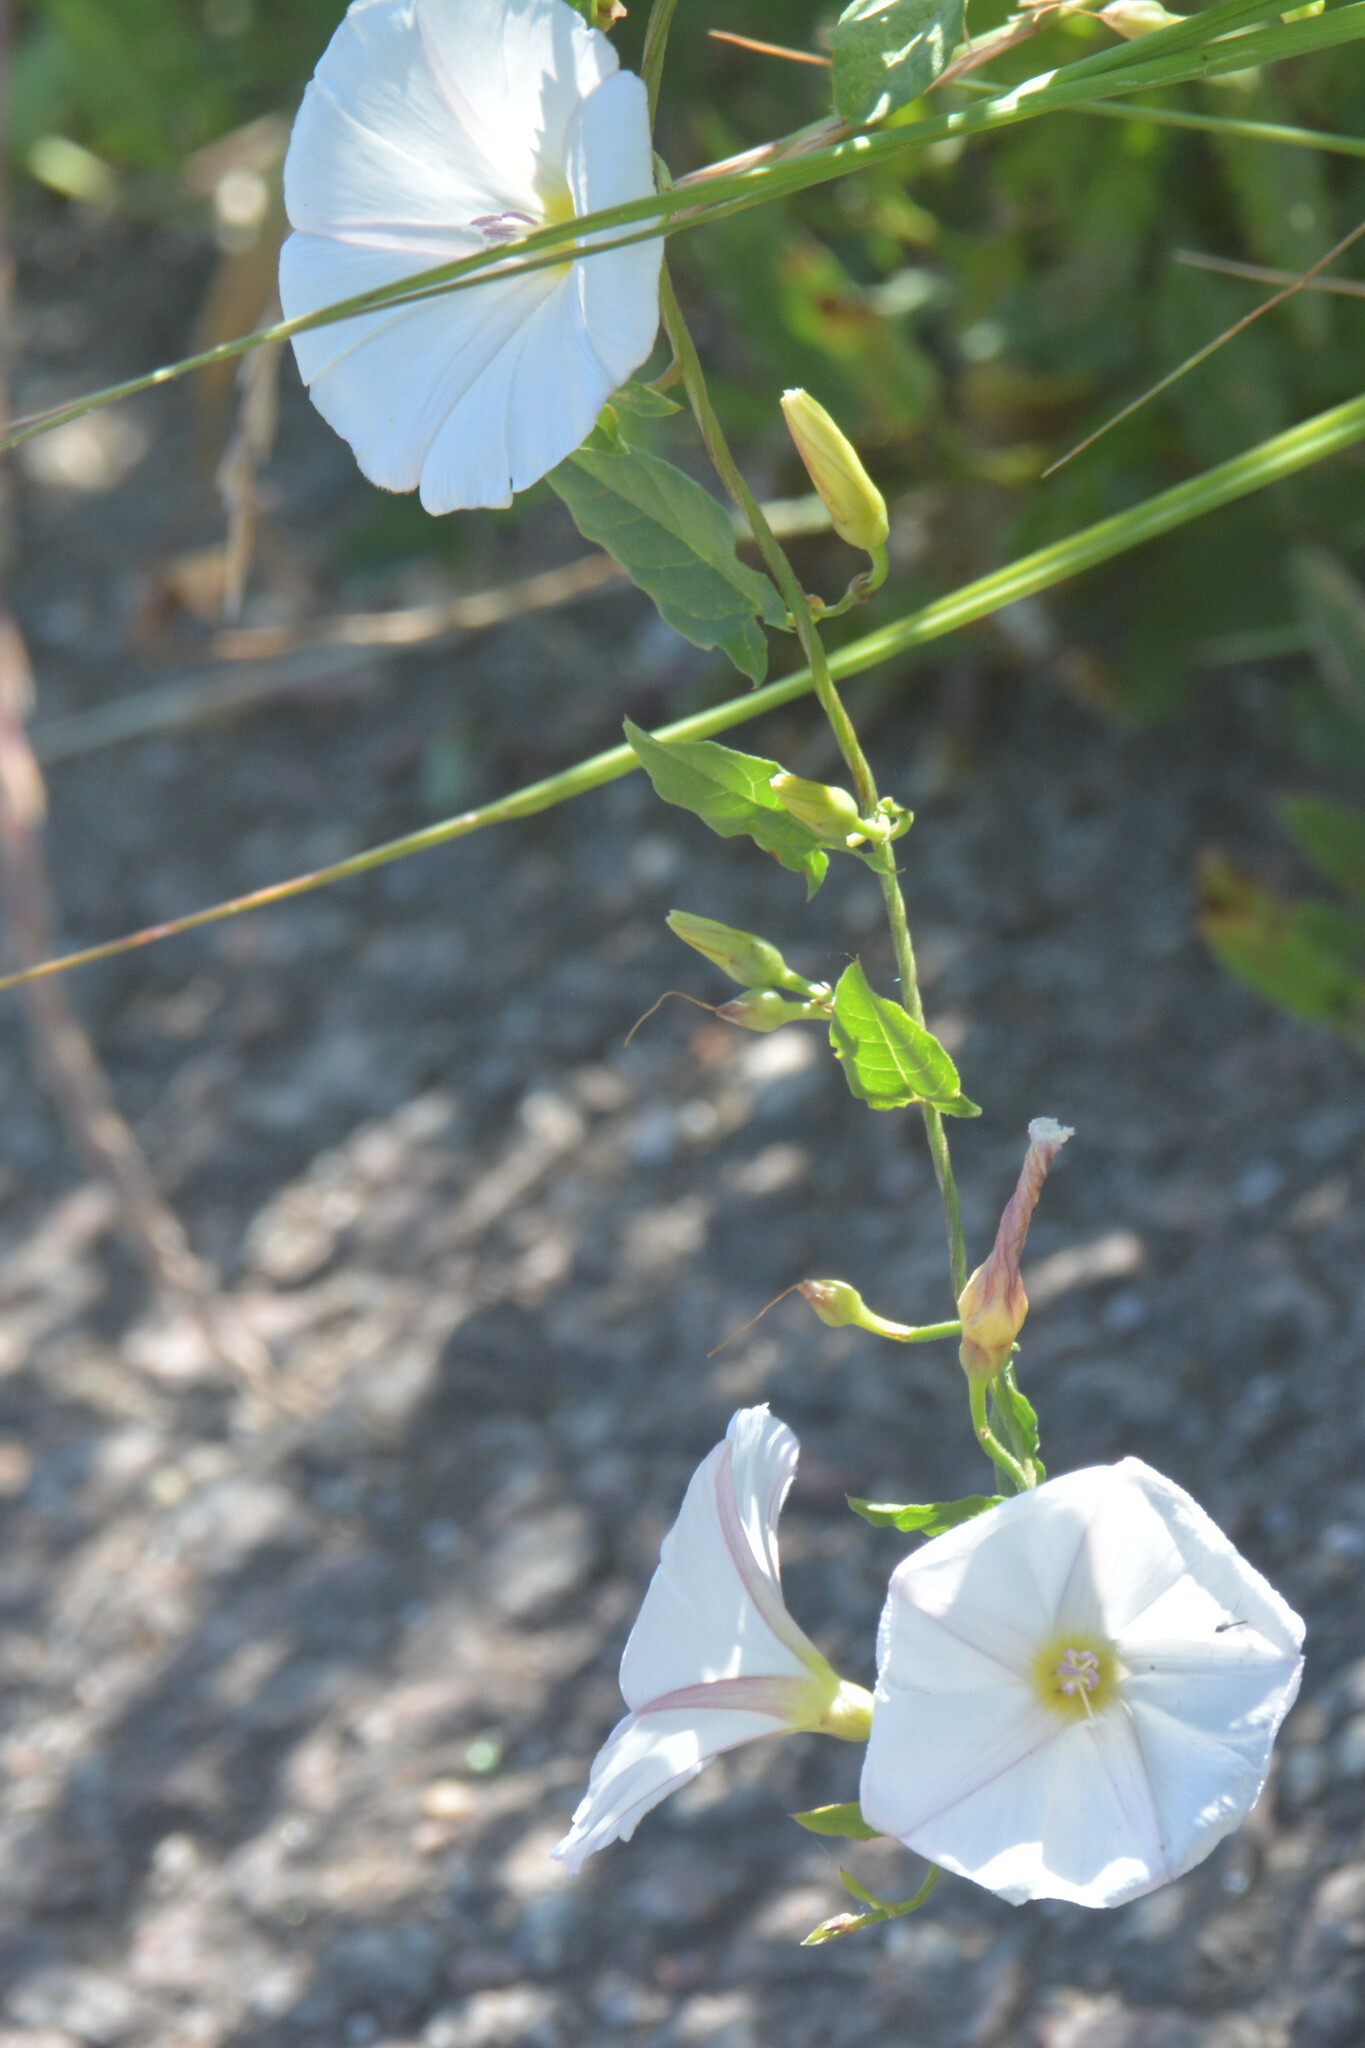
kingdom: Plantae
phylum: Tracheophyta
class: Magnoliopsida
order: Solanales
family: Convolvulaceae
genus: Convolvulus
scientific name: Convolvulus arvensis
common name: Field bindweed
